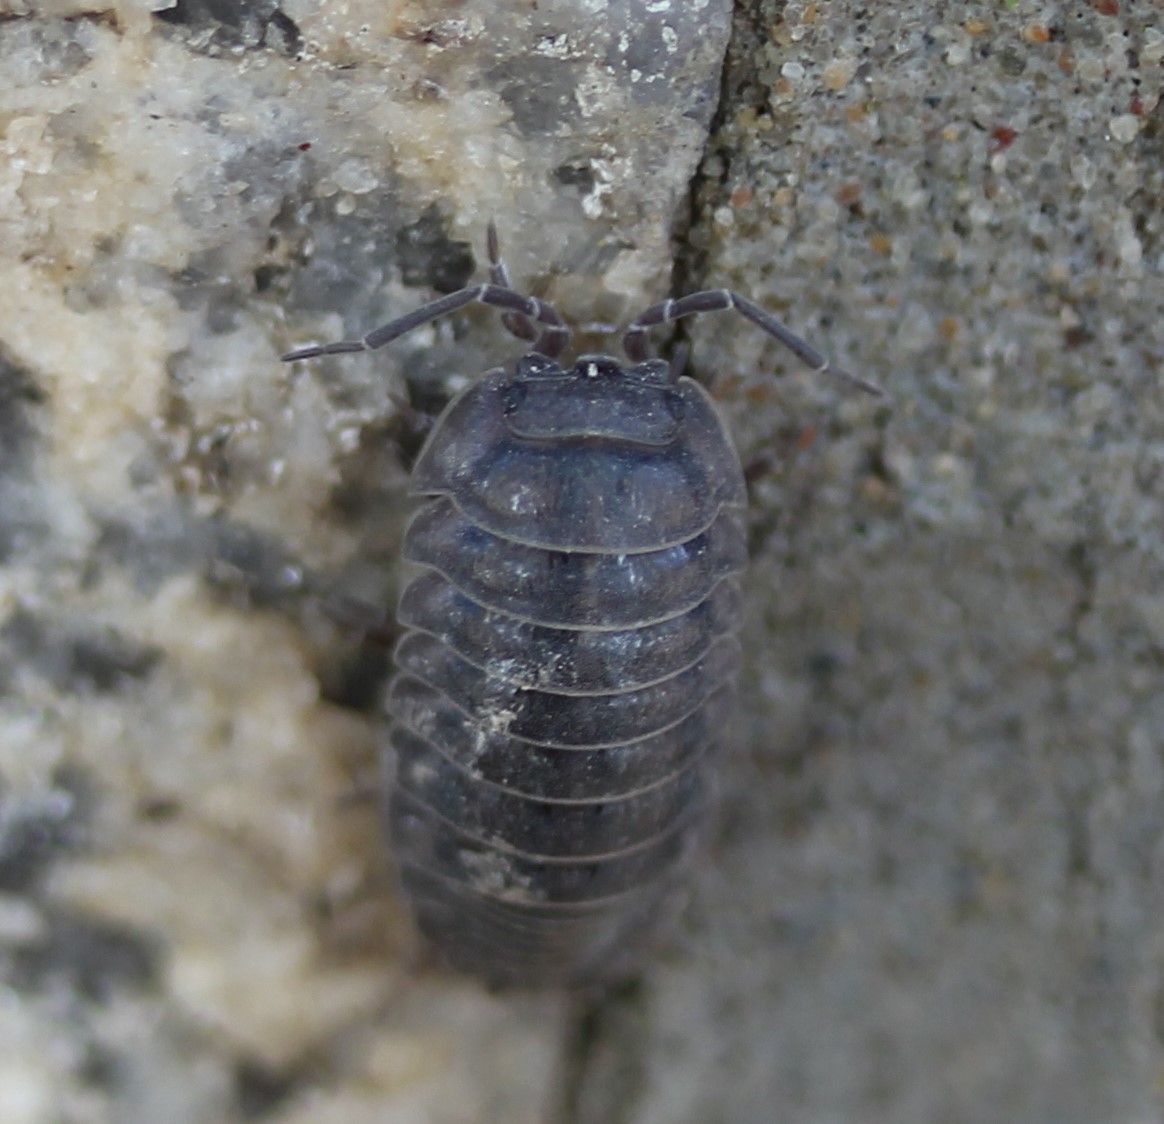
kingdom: Animalia
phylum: Arthropoda
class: Malacostraca
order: Isopoda
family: Armadillidiidae
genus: Armadillidium
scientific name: Armadillidium nasatum
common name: Isopod
